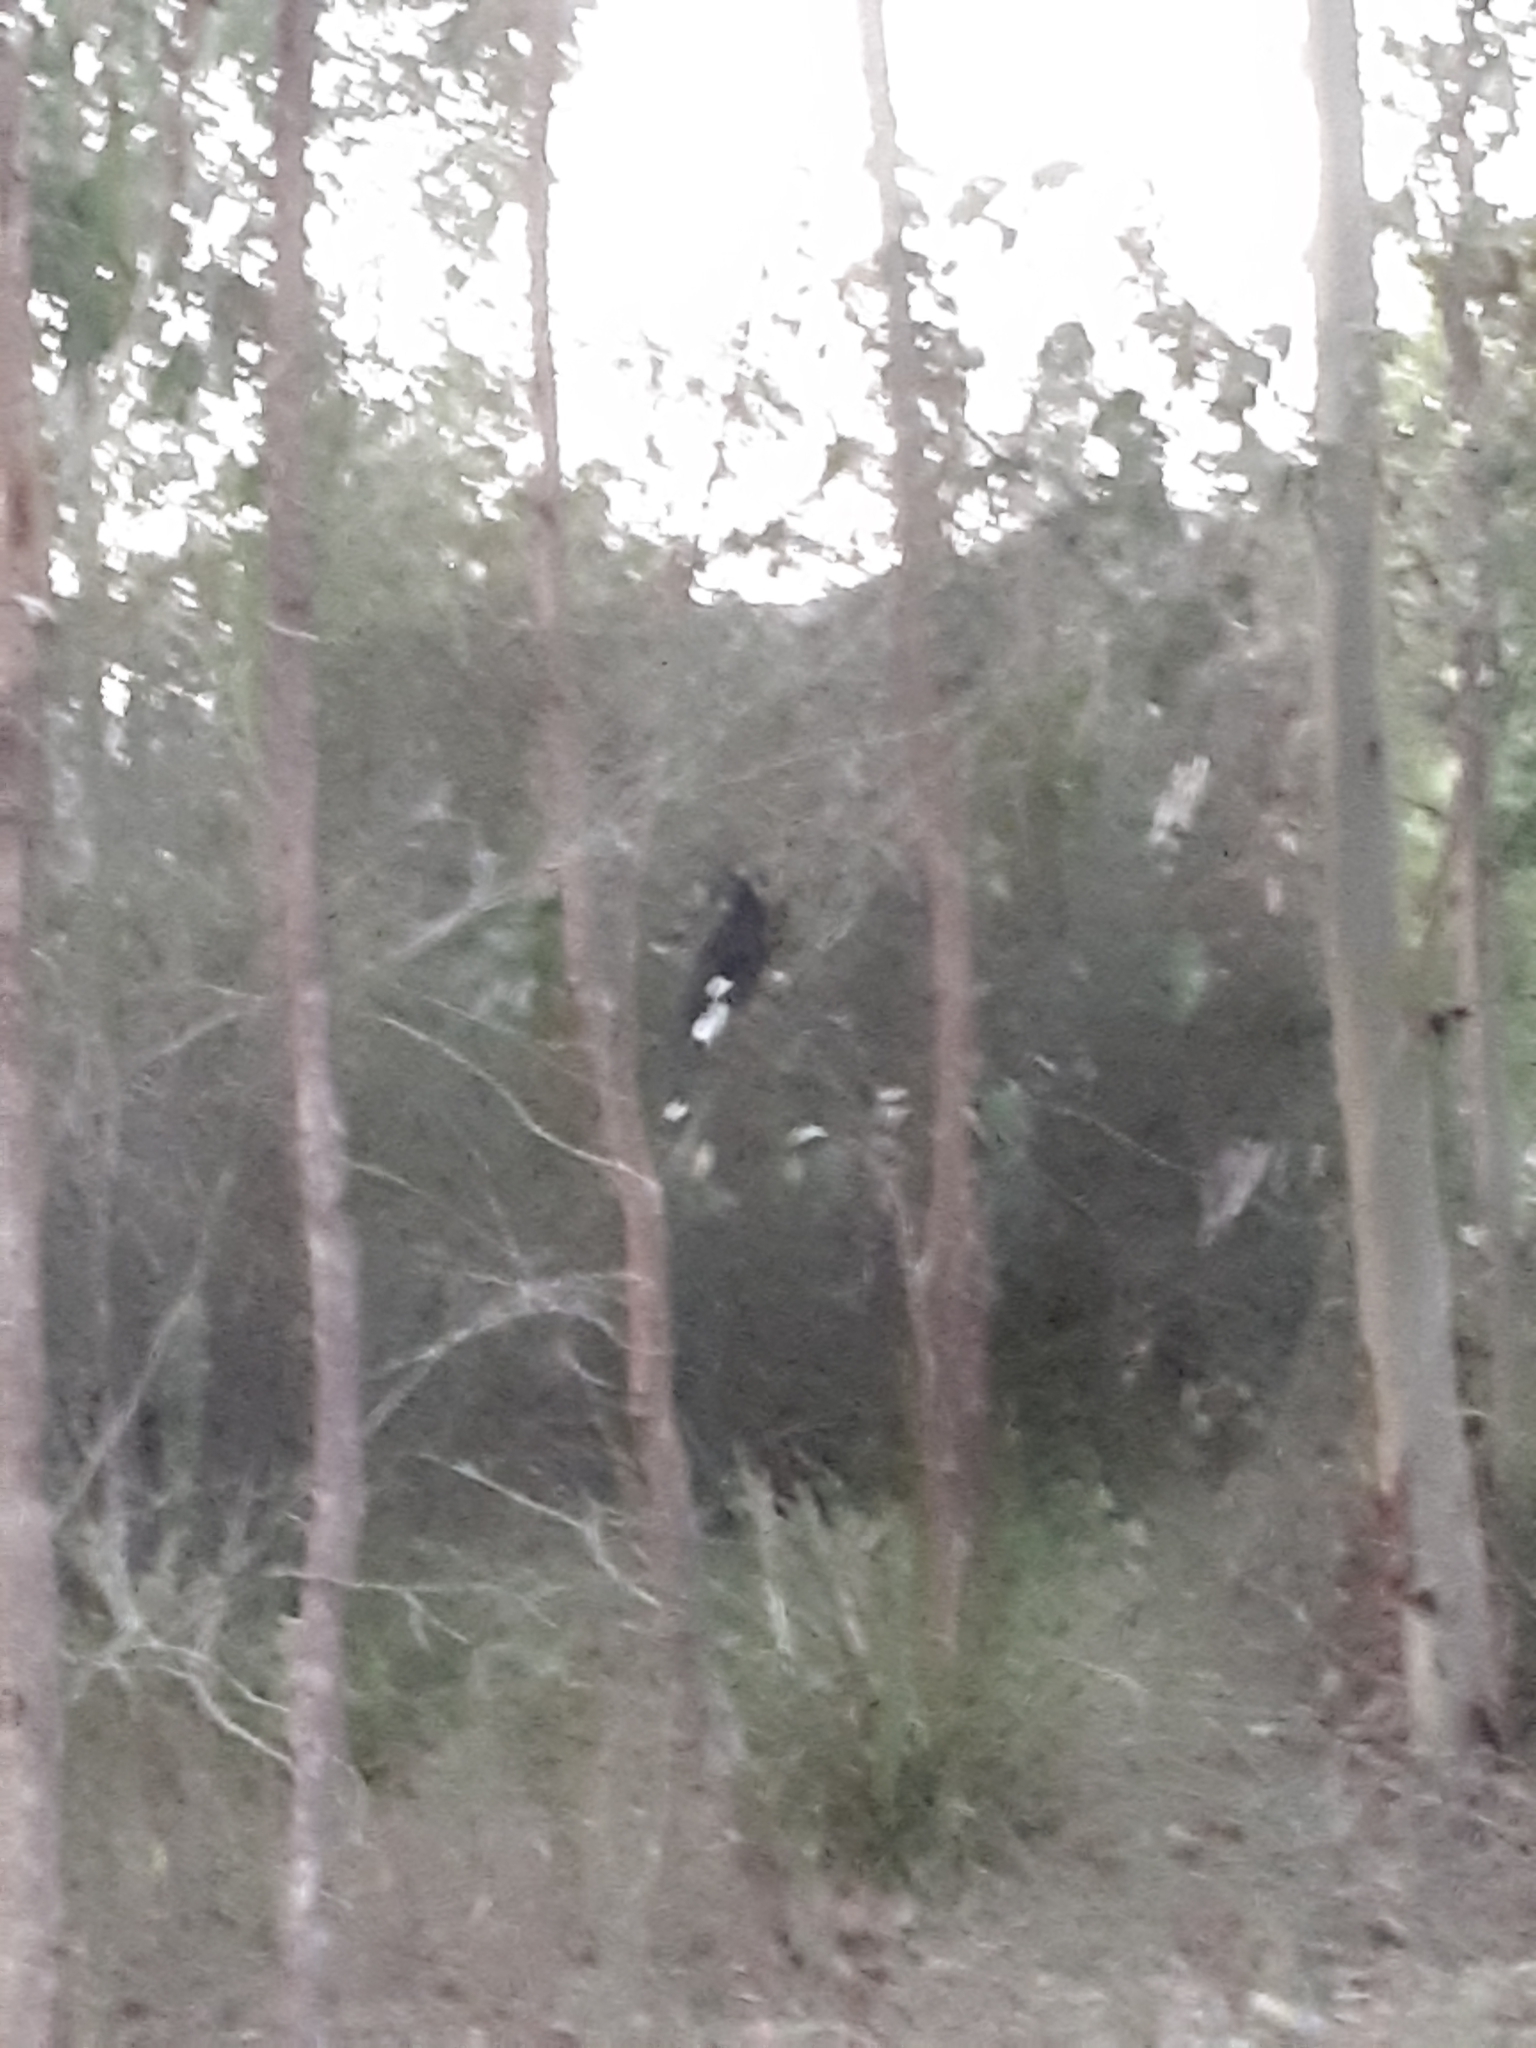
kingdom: Animalia
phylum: Chordata
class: Aves
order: Passeriformes
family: Cracticidae
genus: Strepera
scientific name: Strepera graculina
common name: Pied currawong
